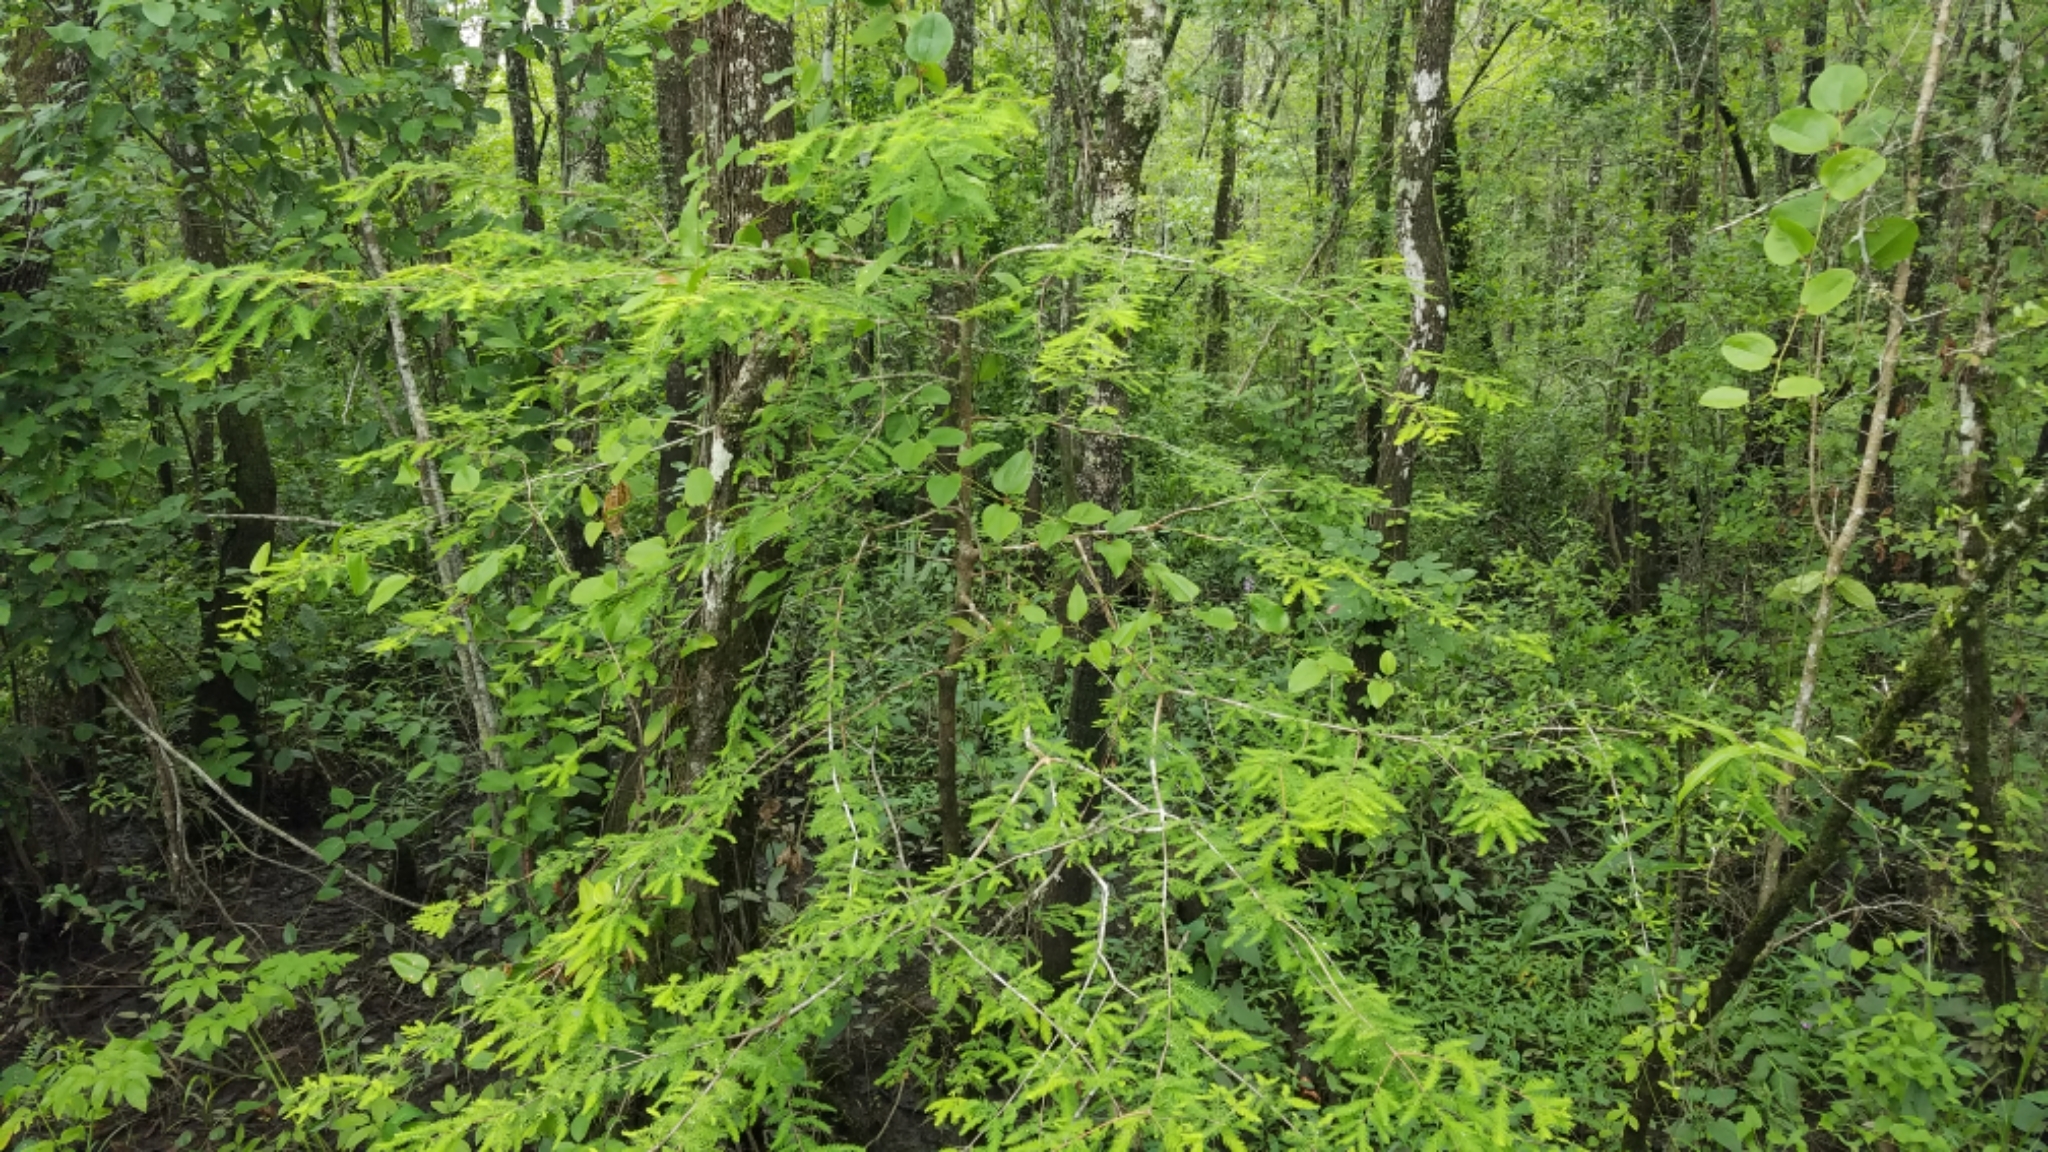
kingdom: Plantae
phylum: Tracheophyta
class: Pinopsida
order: Pinales
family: Cupressaceae
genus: Taxodium
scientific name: Taxodium distichum
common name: Bald cypress
